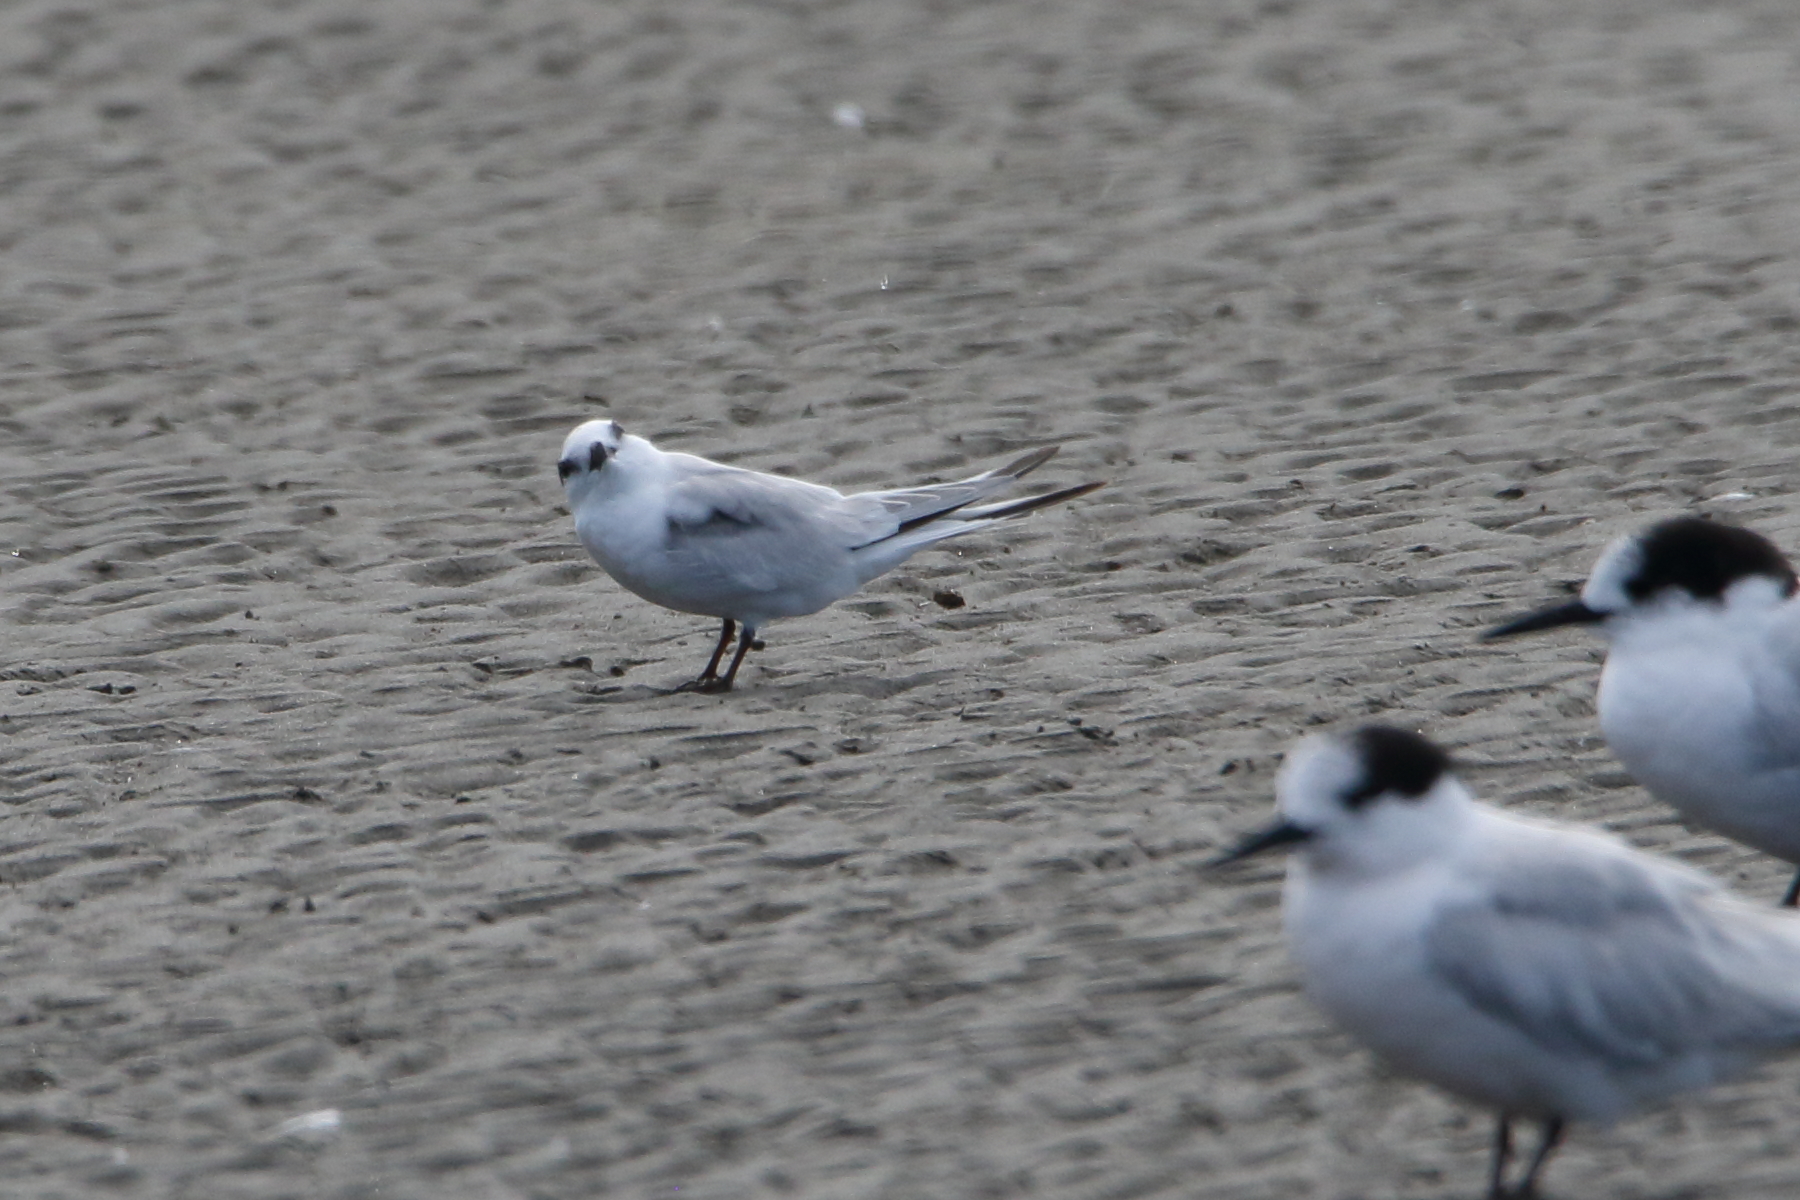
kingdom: Animalia
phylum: Chordata
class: Aves
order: Charadriiformes
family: Laridae
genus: Sternula
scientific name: Sternula albifrons
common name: Little tern
